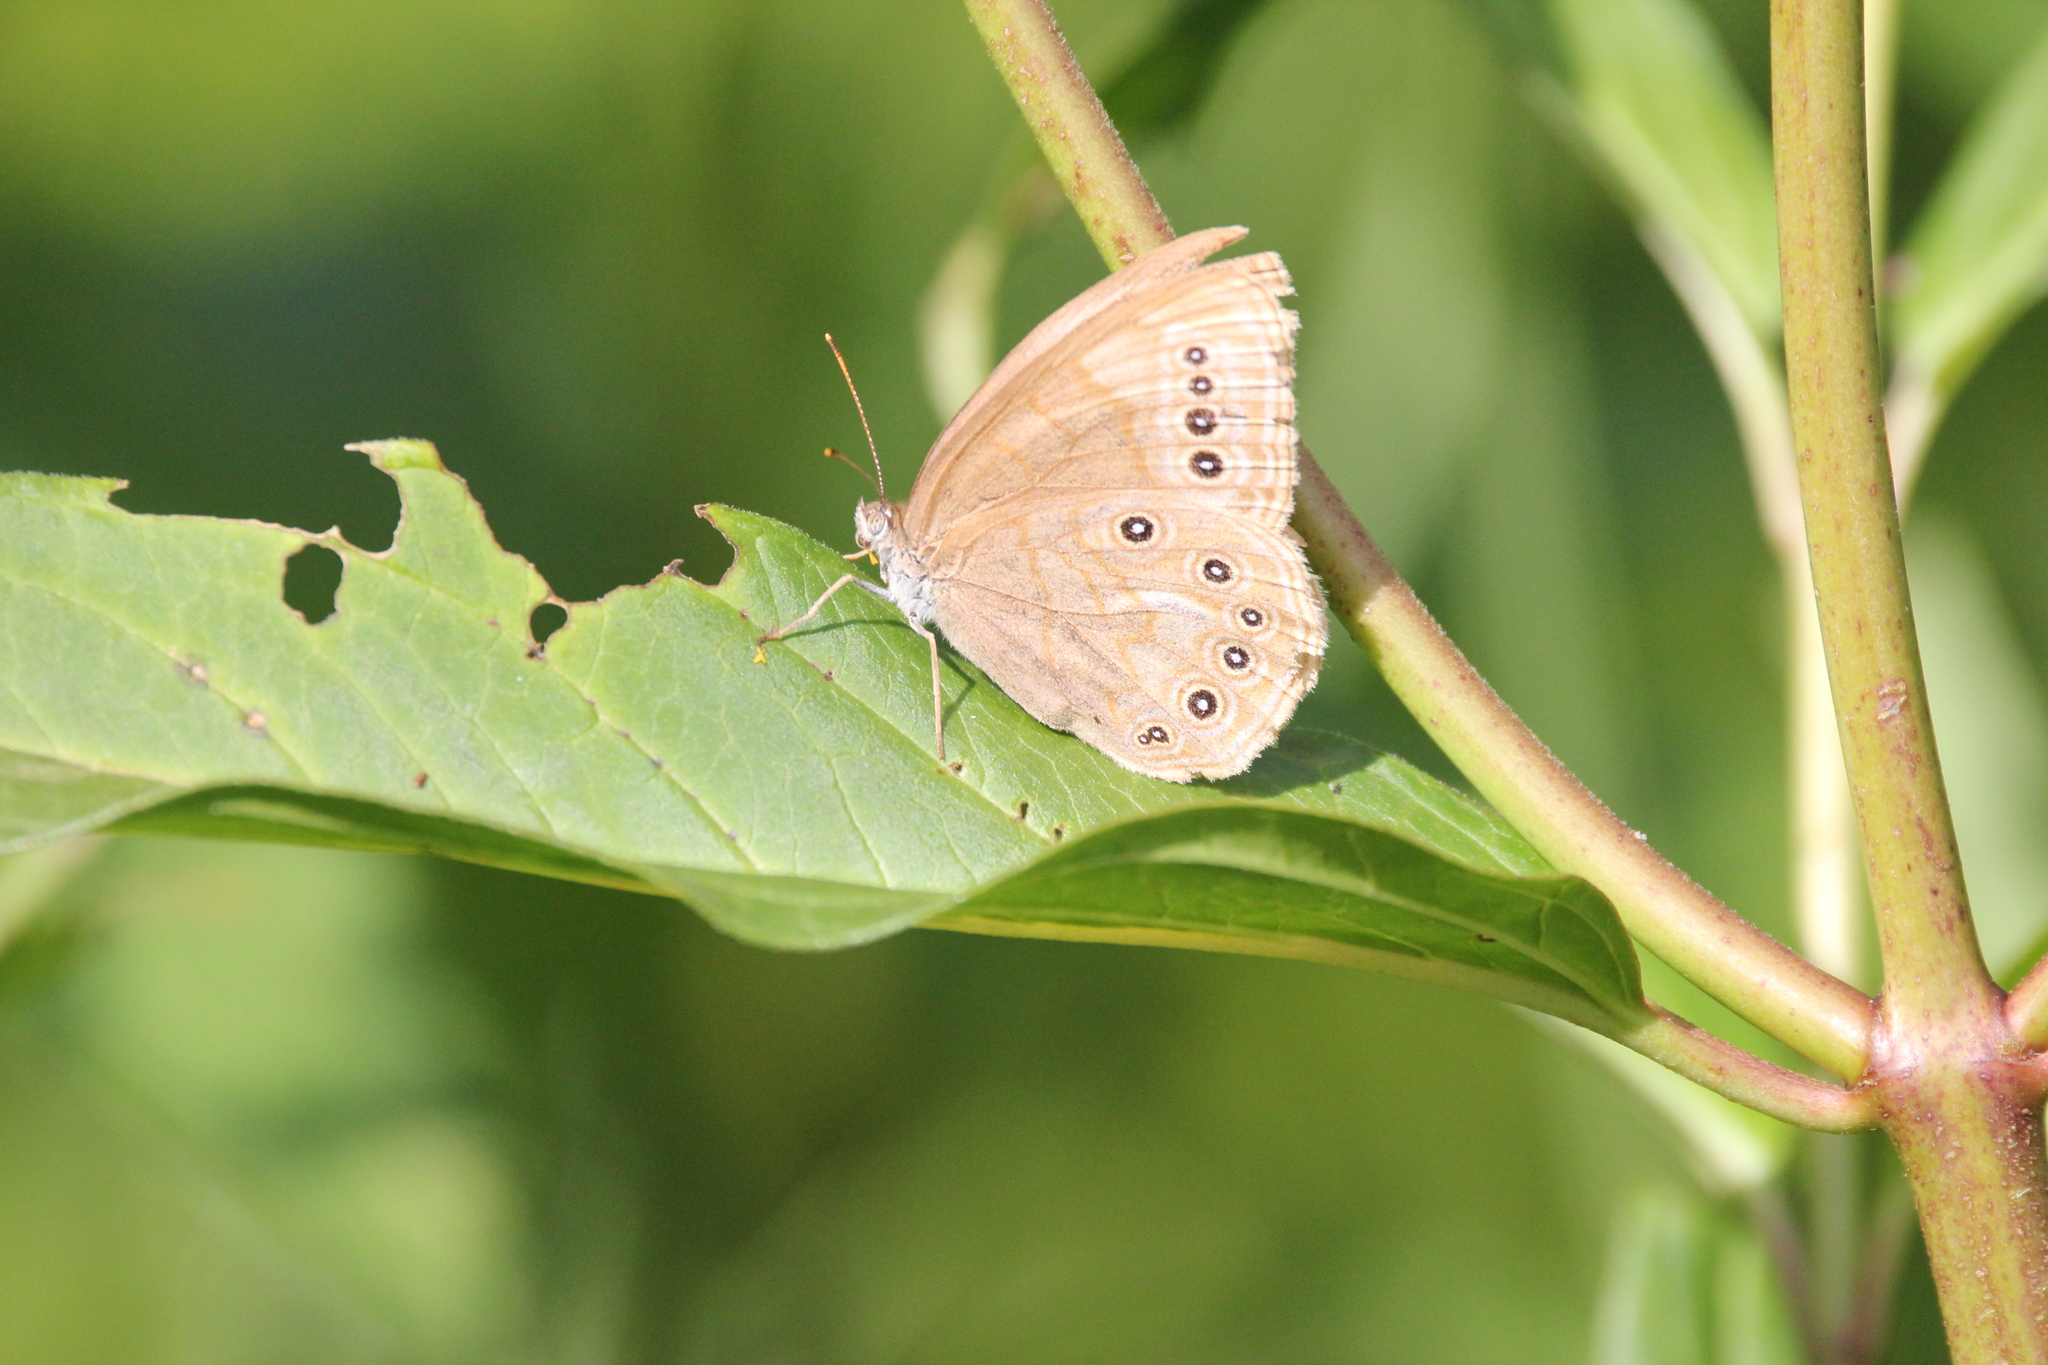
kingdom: Animalia
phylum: Arthropoda
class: Insecta
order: Lepidoptera
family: Nymphalidae
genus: Lethe
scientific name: Lethe eurydice
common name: Eyed brown
